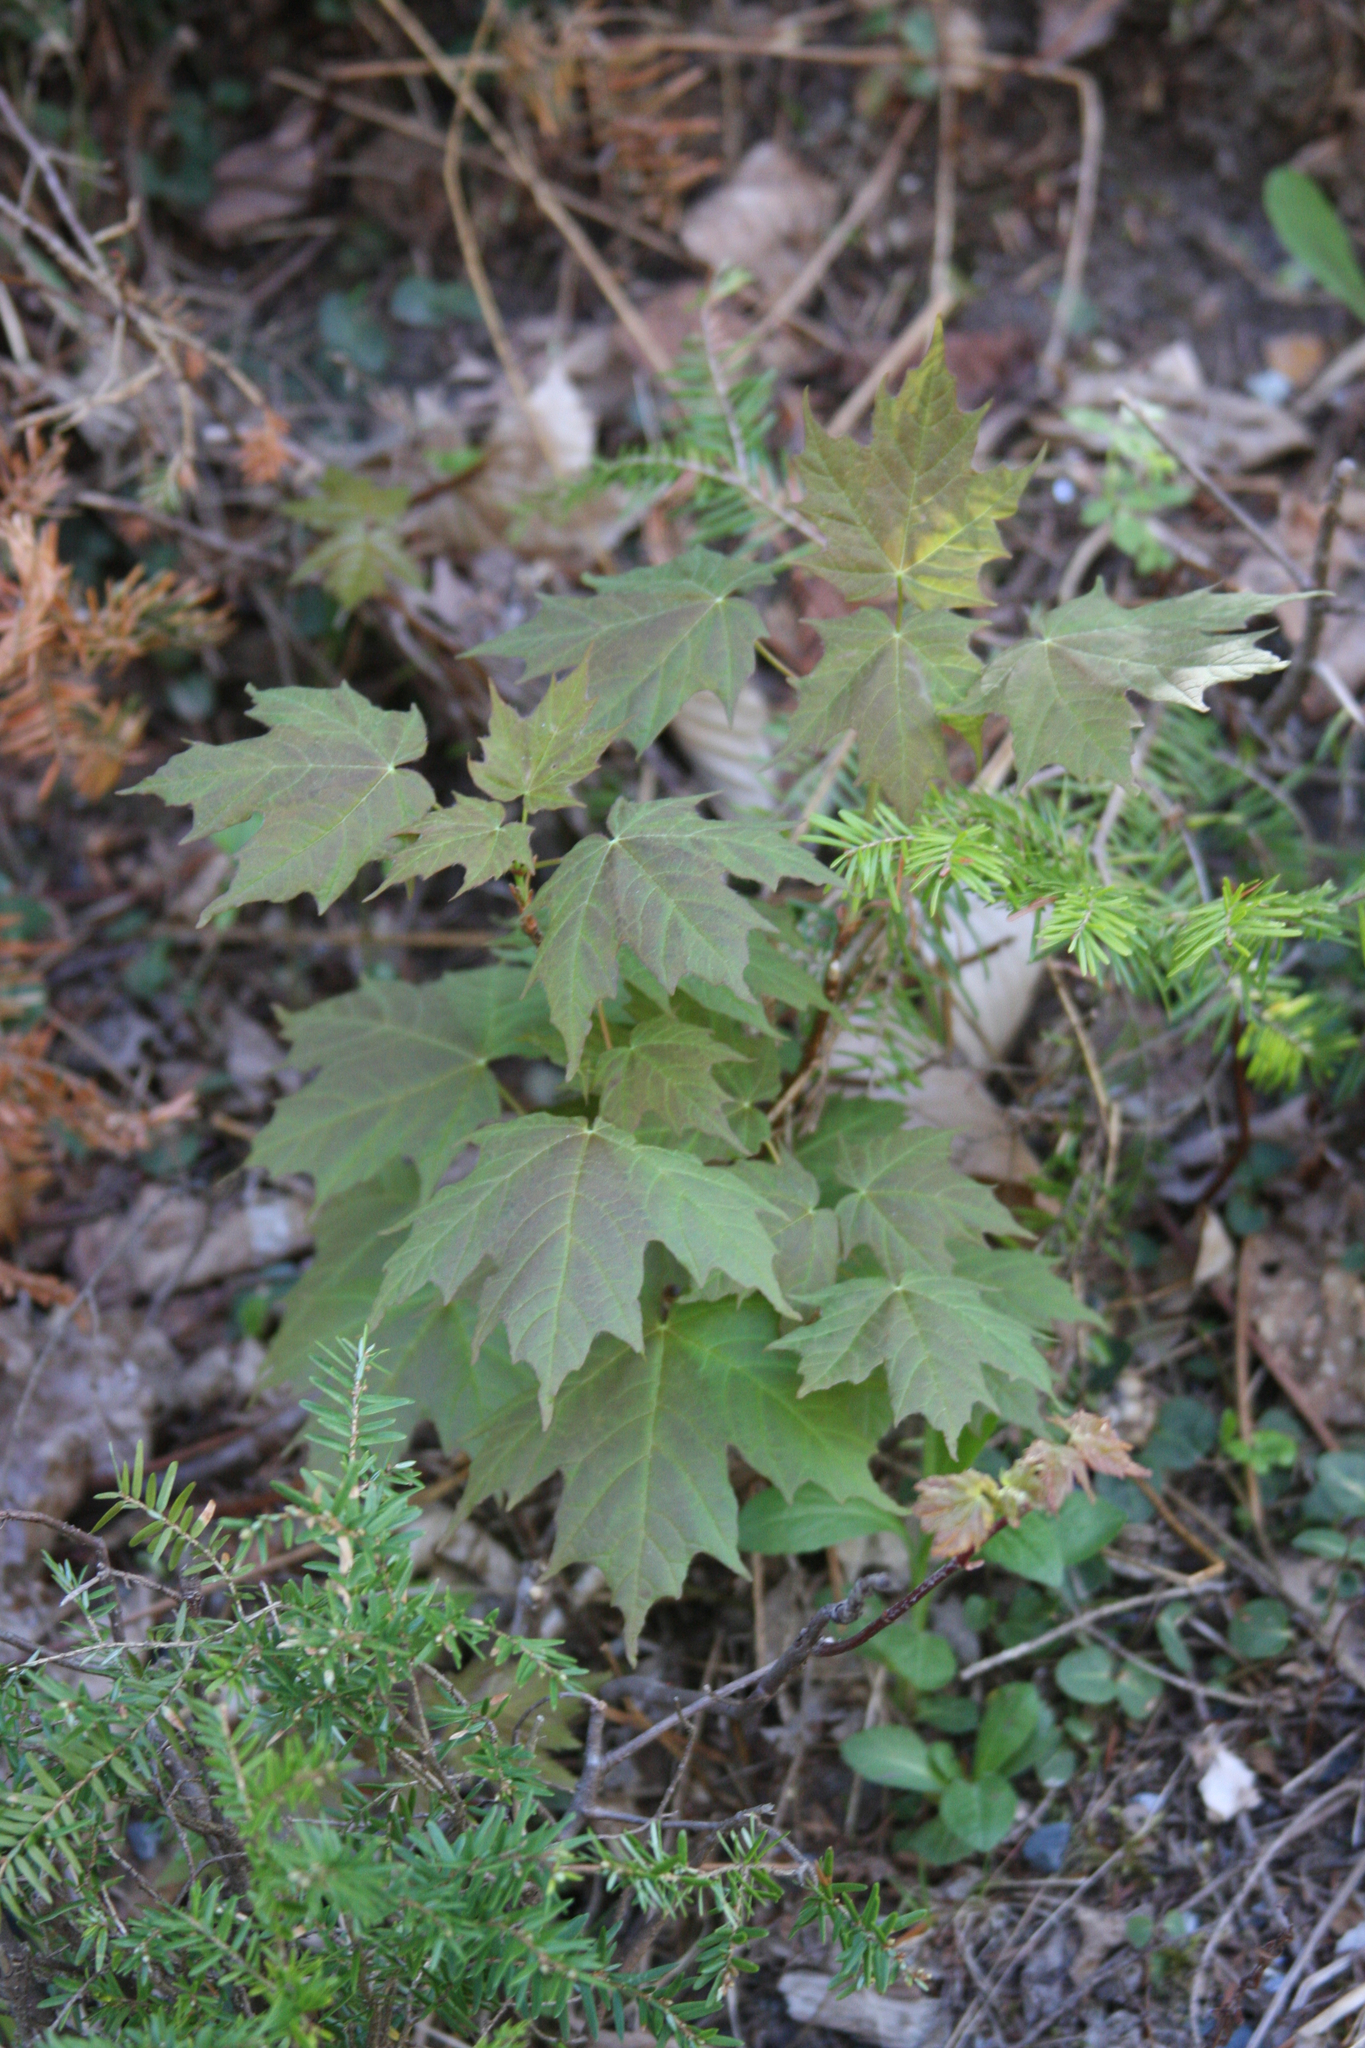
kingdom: Plantae
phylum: Tracheophyta
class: Pinopsida
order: Pinales
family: Pinaceae
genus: Tsuga
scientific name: Tsuga canadensis
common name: Eastern hemlock
